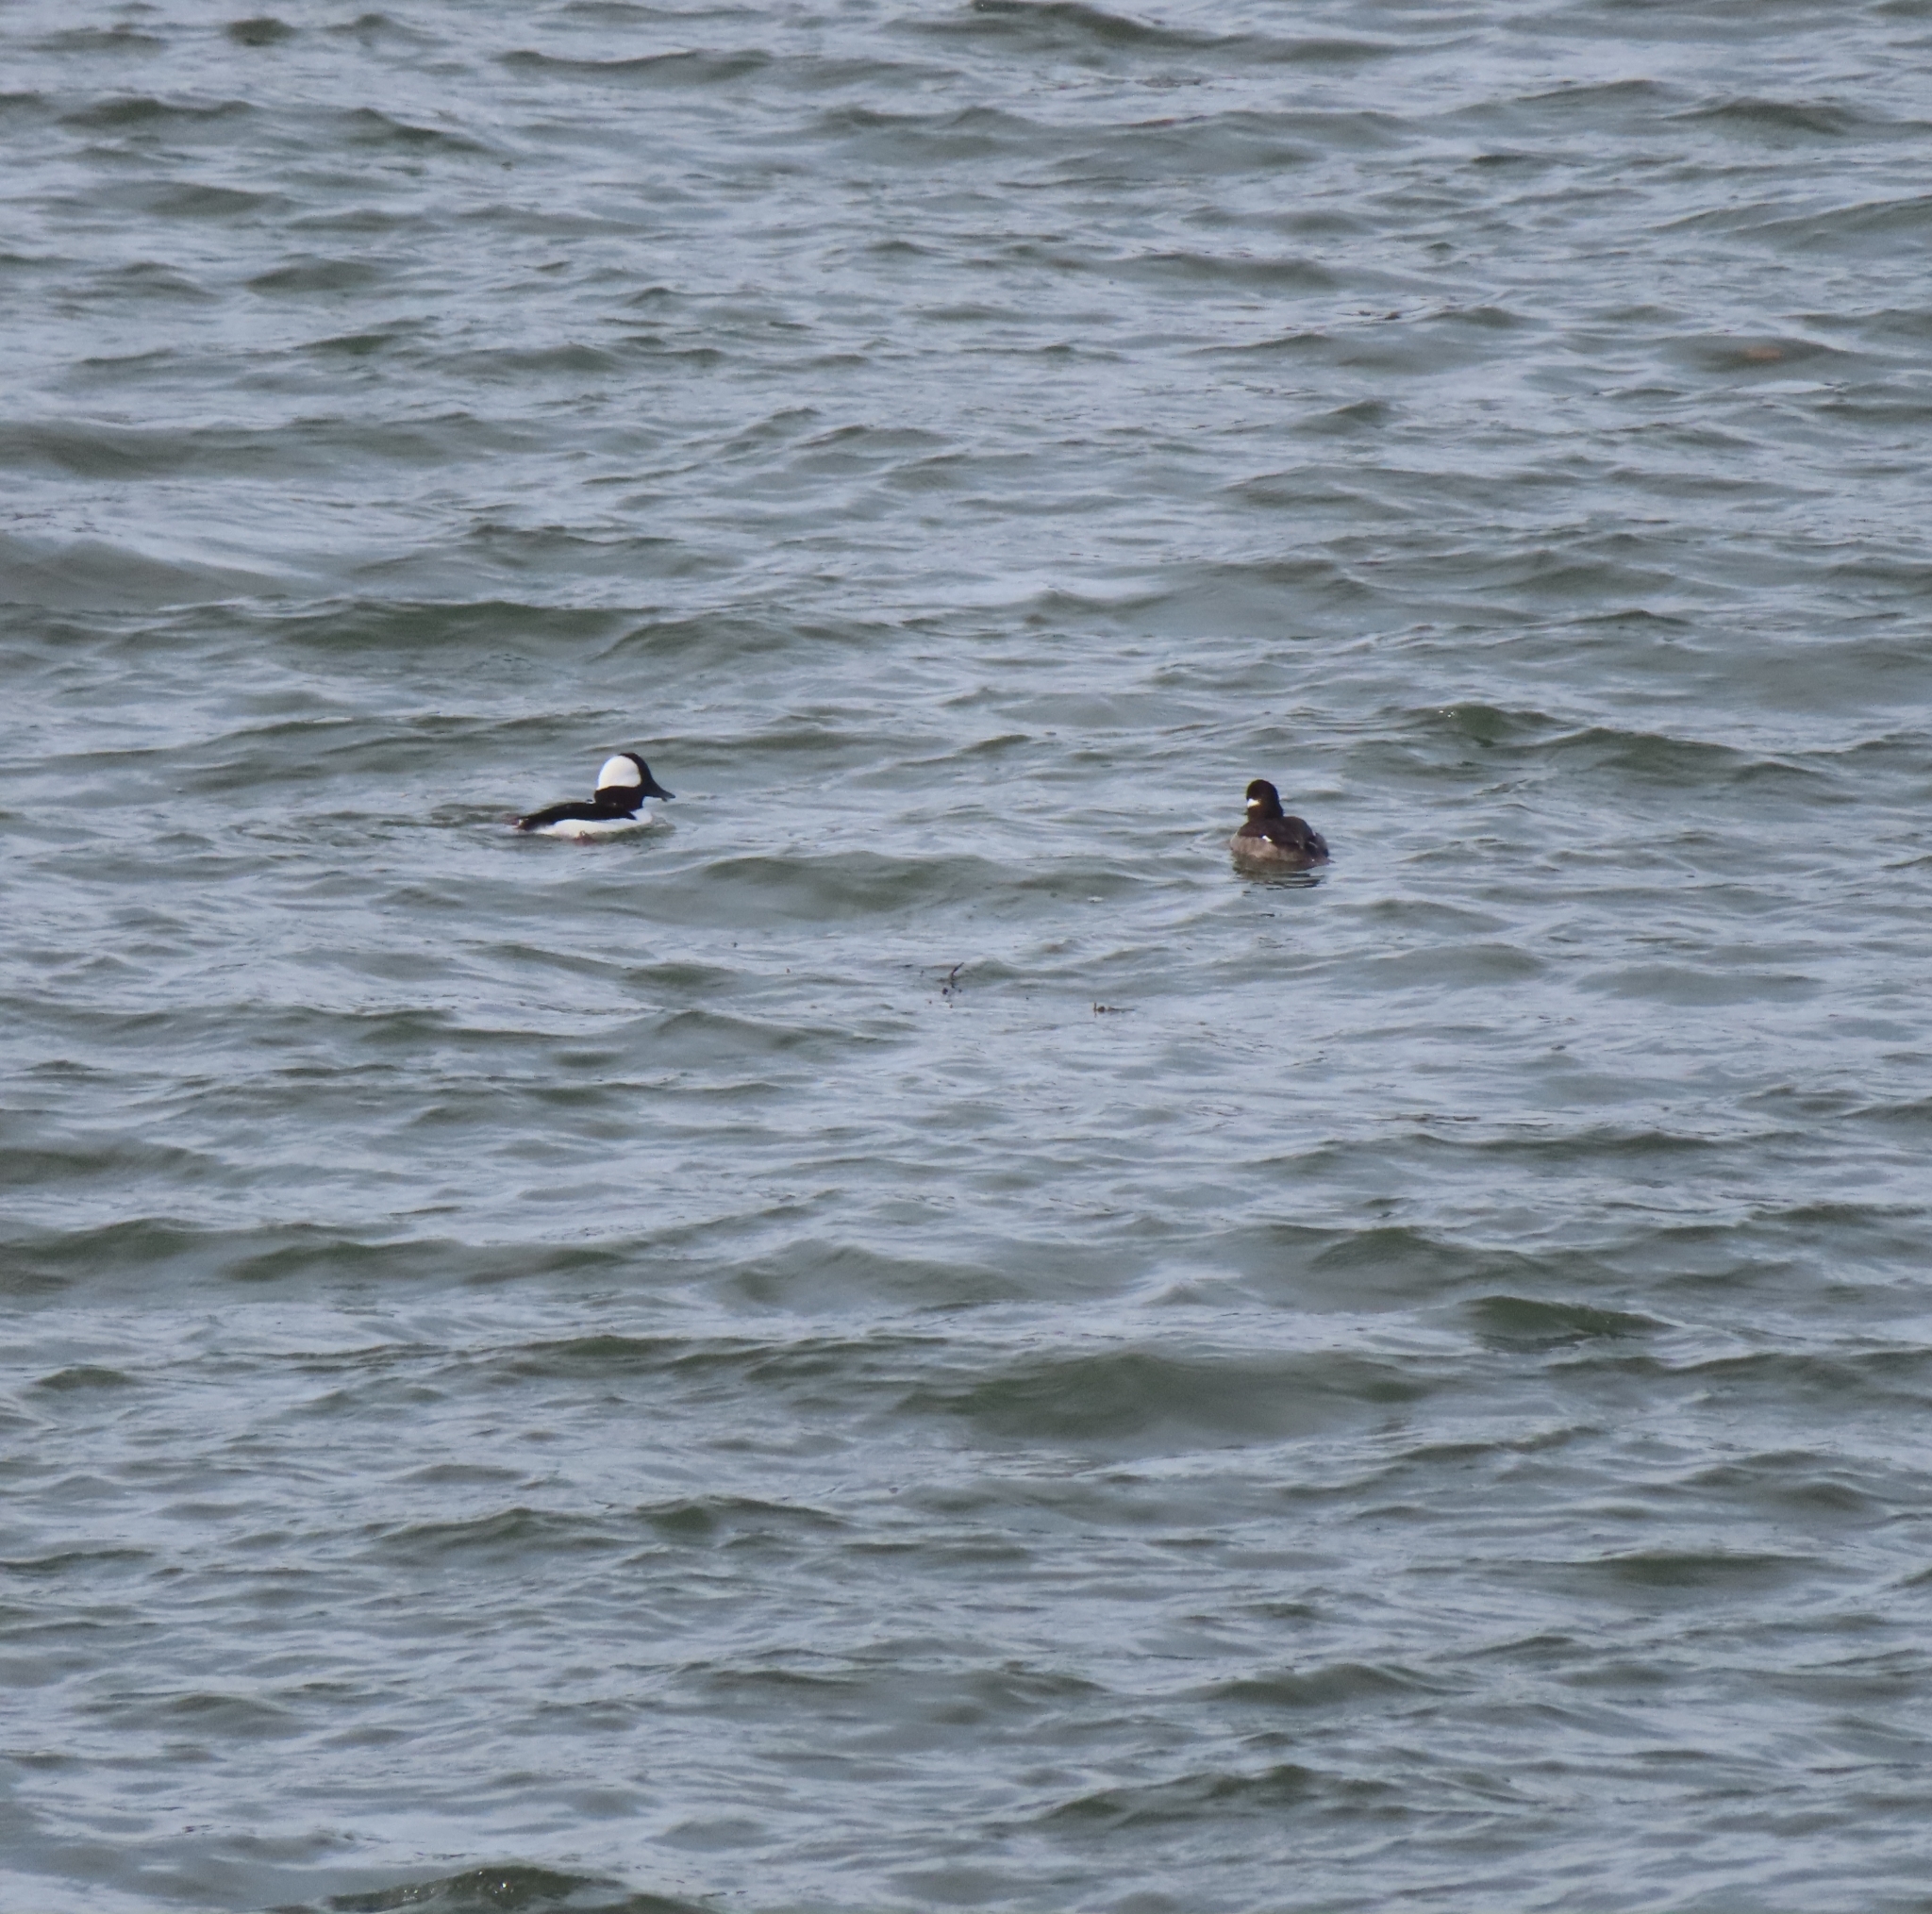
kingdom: Animalia
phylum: Chordata
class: Aves
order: Anseriformes
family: Anatidae
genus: Bucephala
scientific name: Bucephala albeola
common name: Bufflehead
